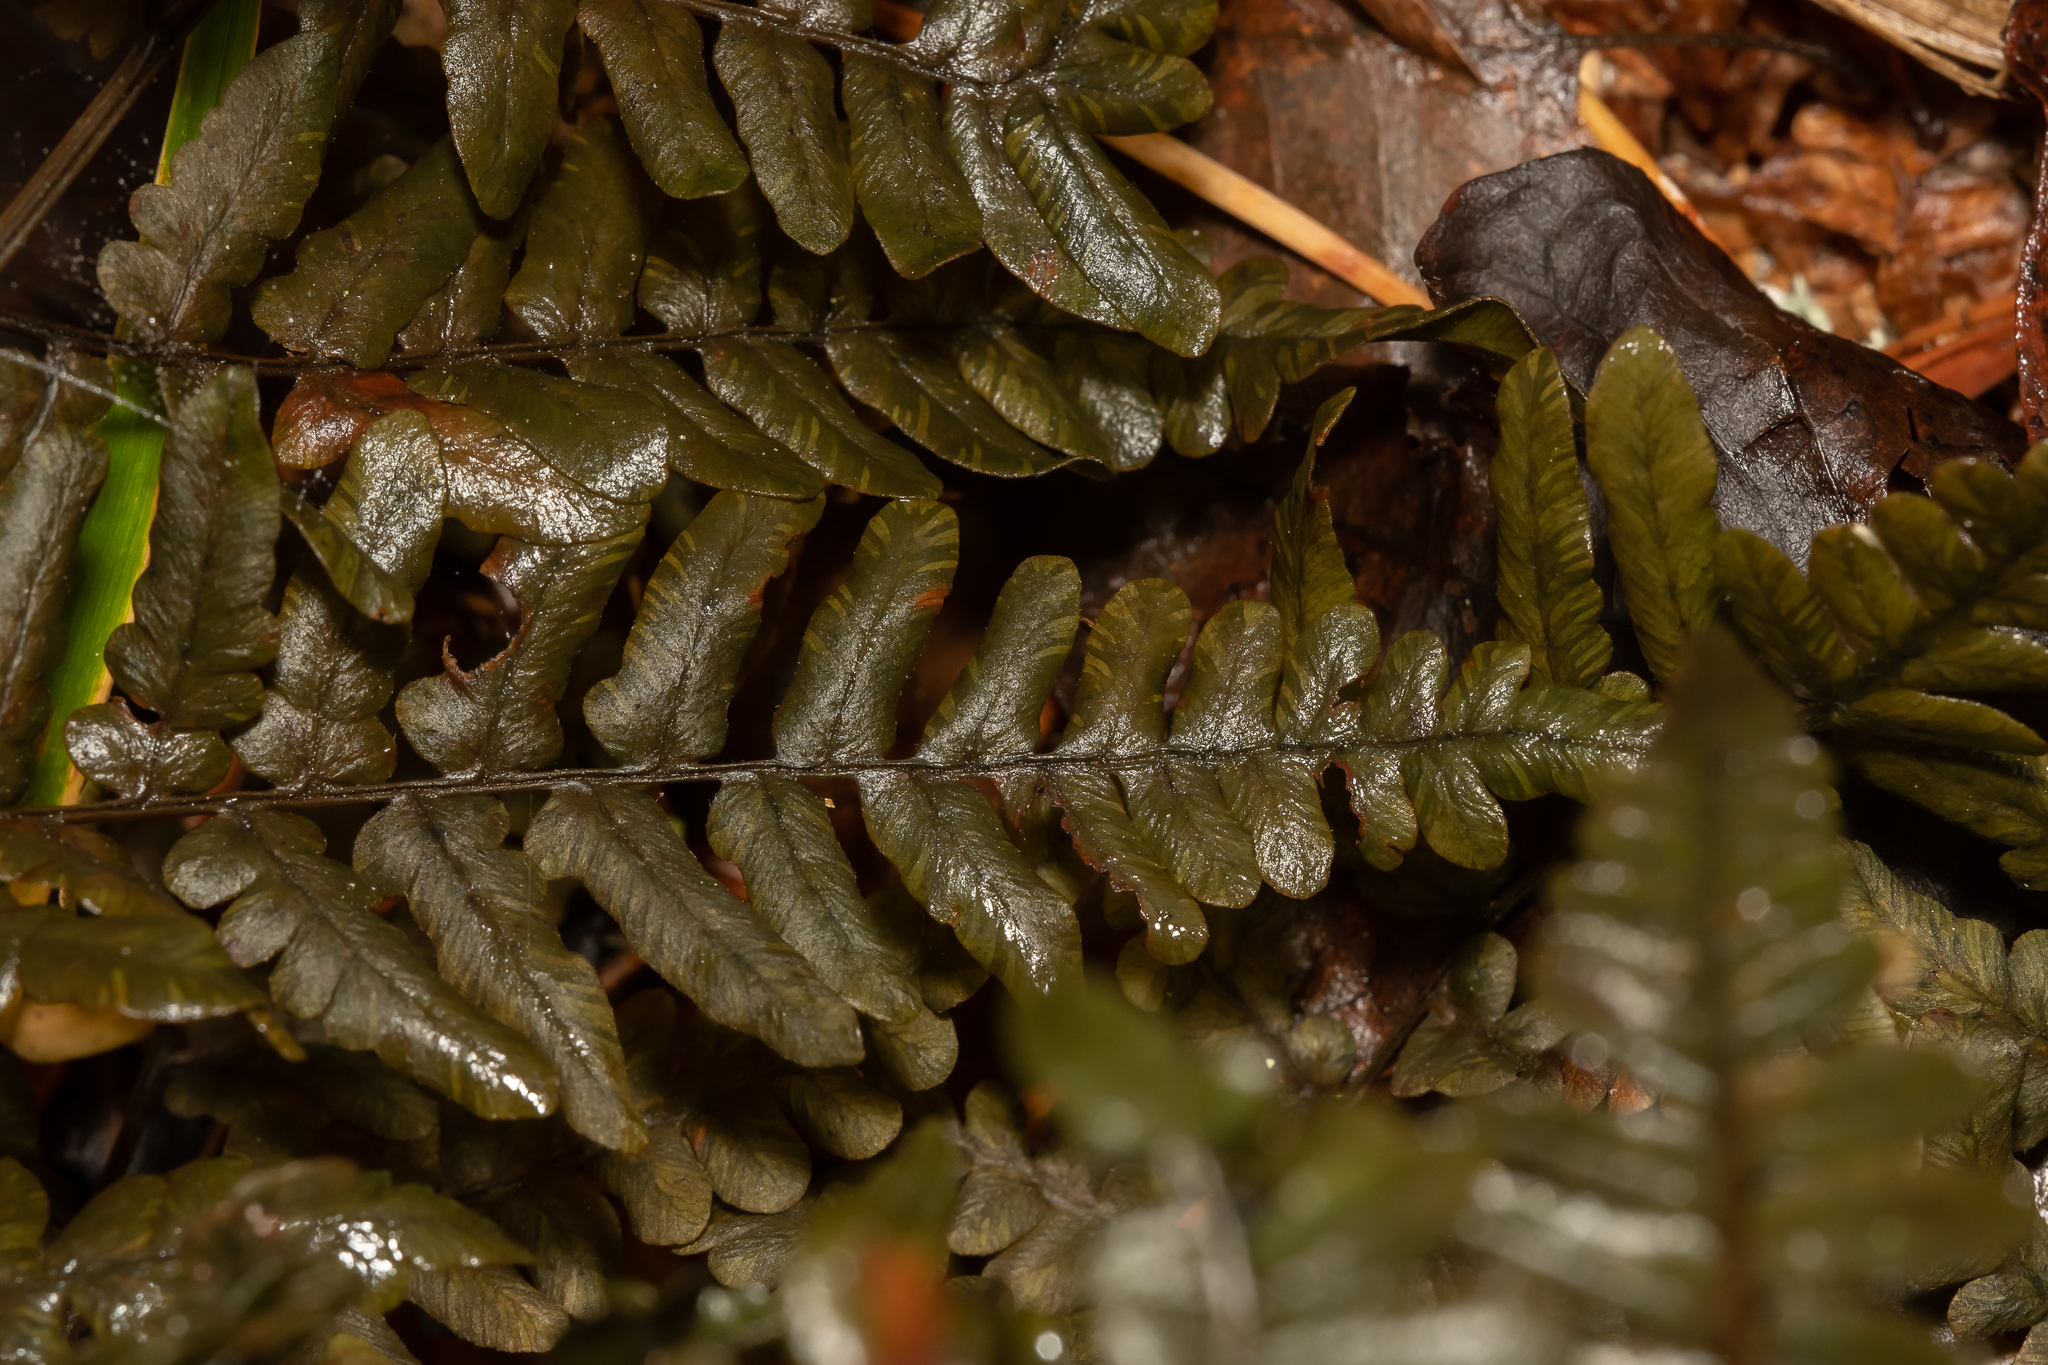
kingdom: Plantae
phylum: Tracheophyta
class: Polypodiopsida
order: Polypodiales
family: Dennstaedtiaceae
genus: Pteridium
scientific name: Pteridium aquilinum
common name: Bracken
